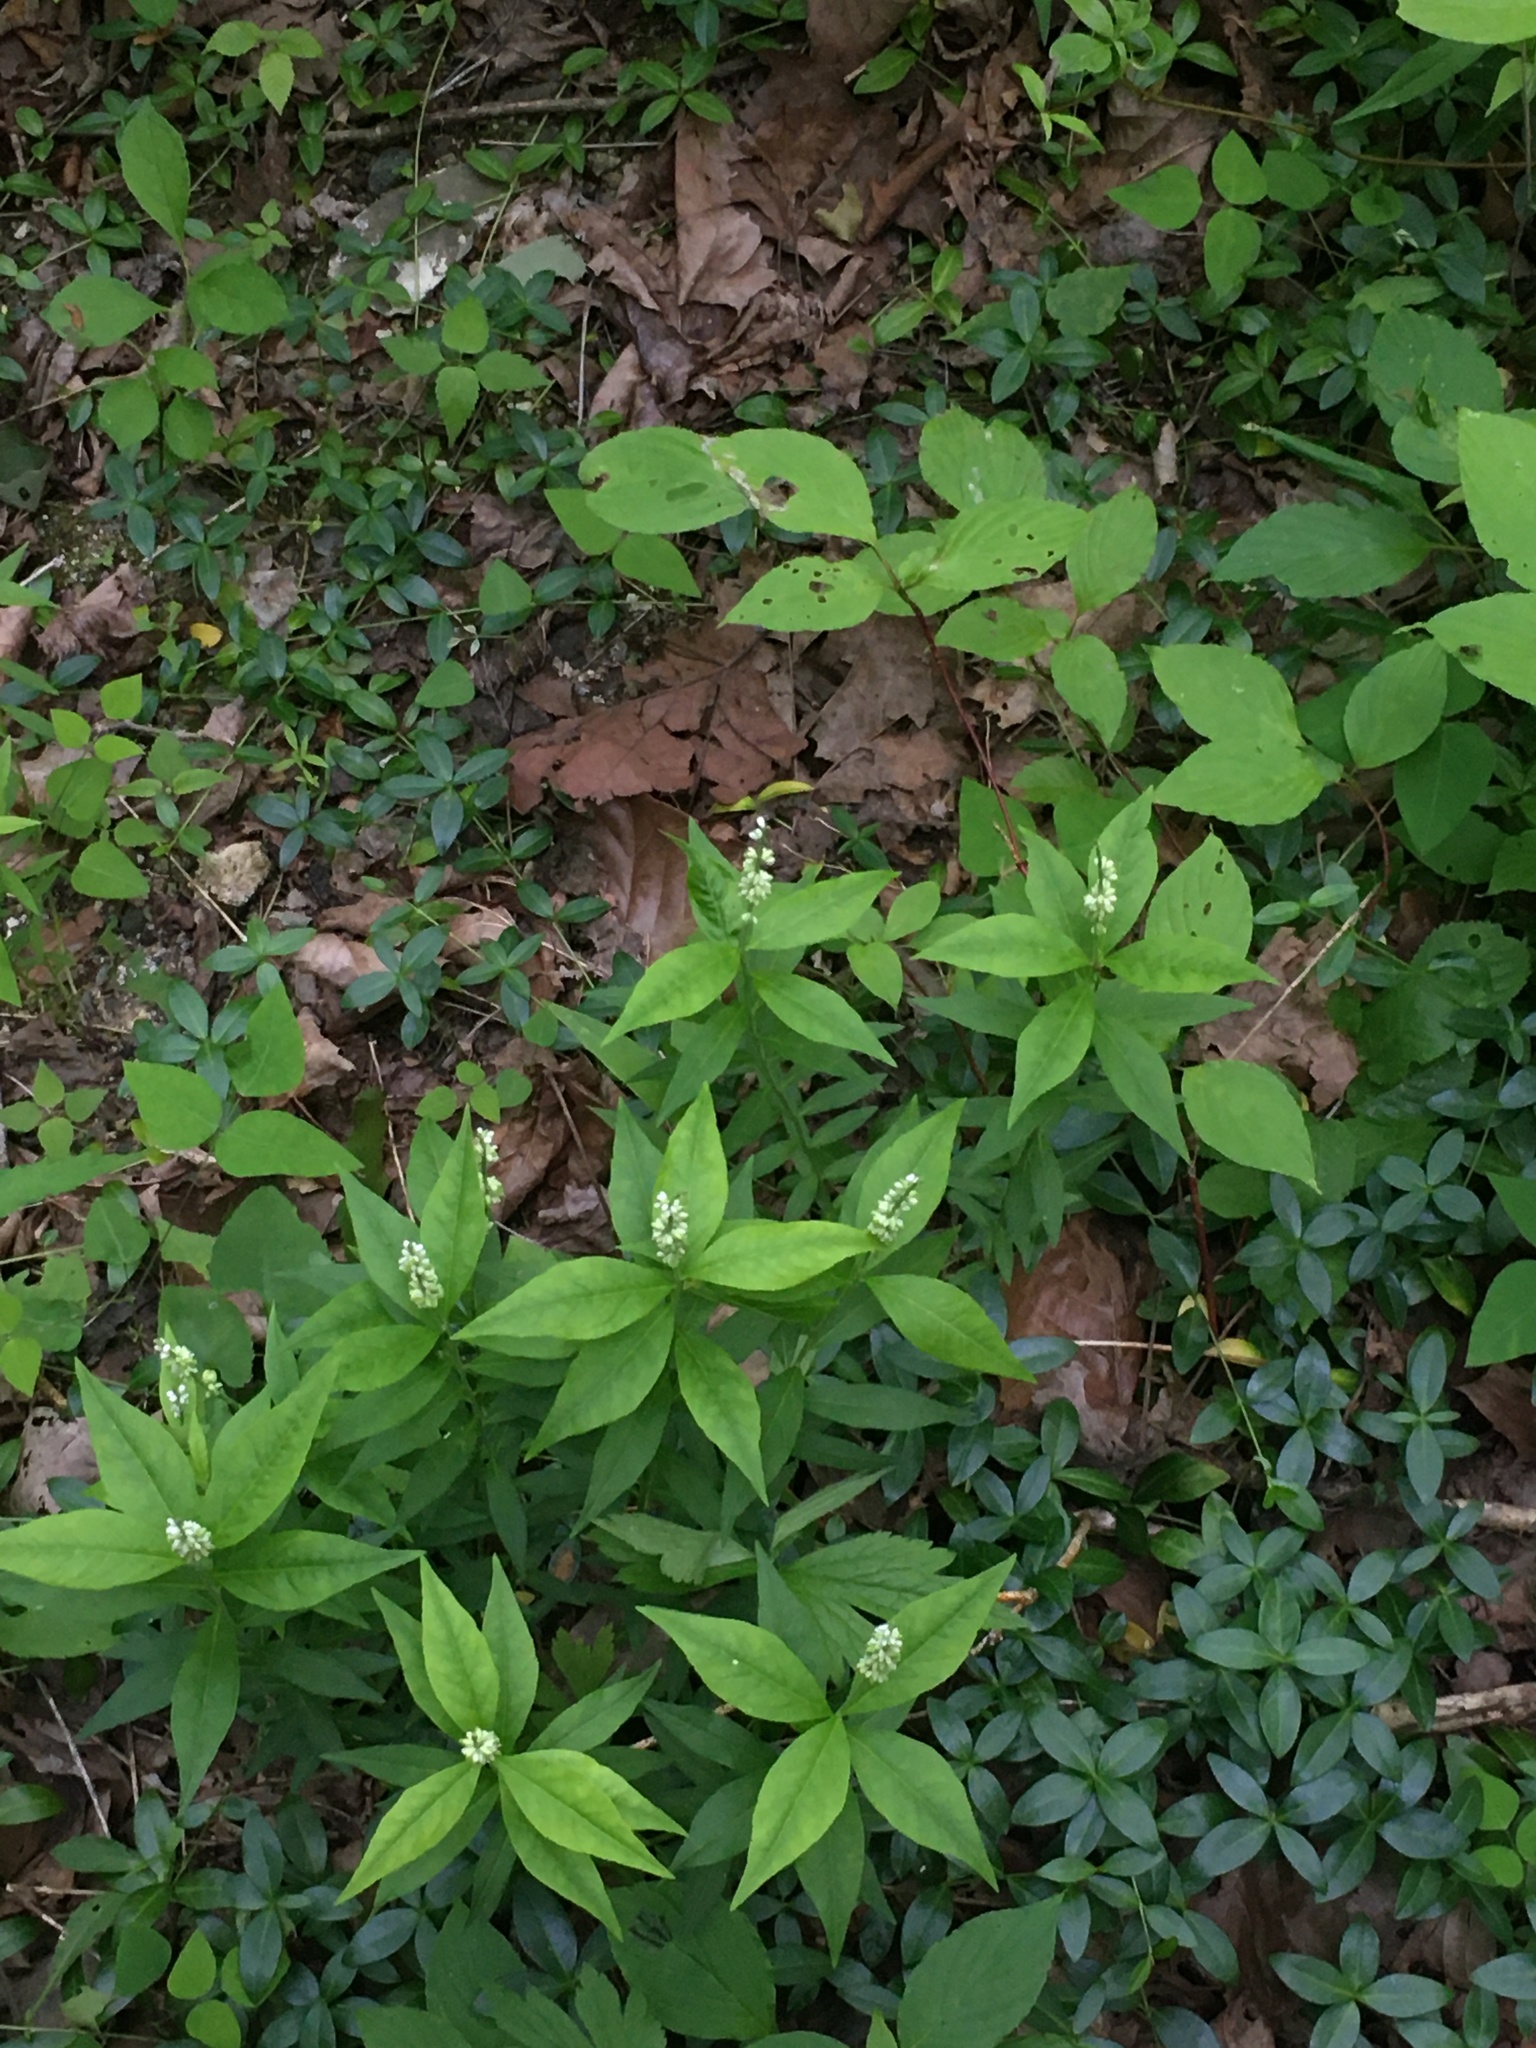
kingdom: Plantae
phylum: Tracheophyta
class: Magnoliopsida
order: Fabales
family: Polygalaceae
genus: Polygala
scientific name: Polygala senega
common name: Seneca snakeroot
